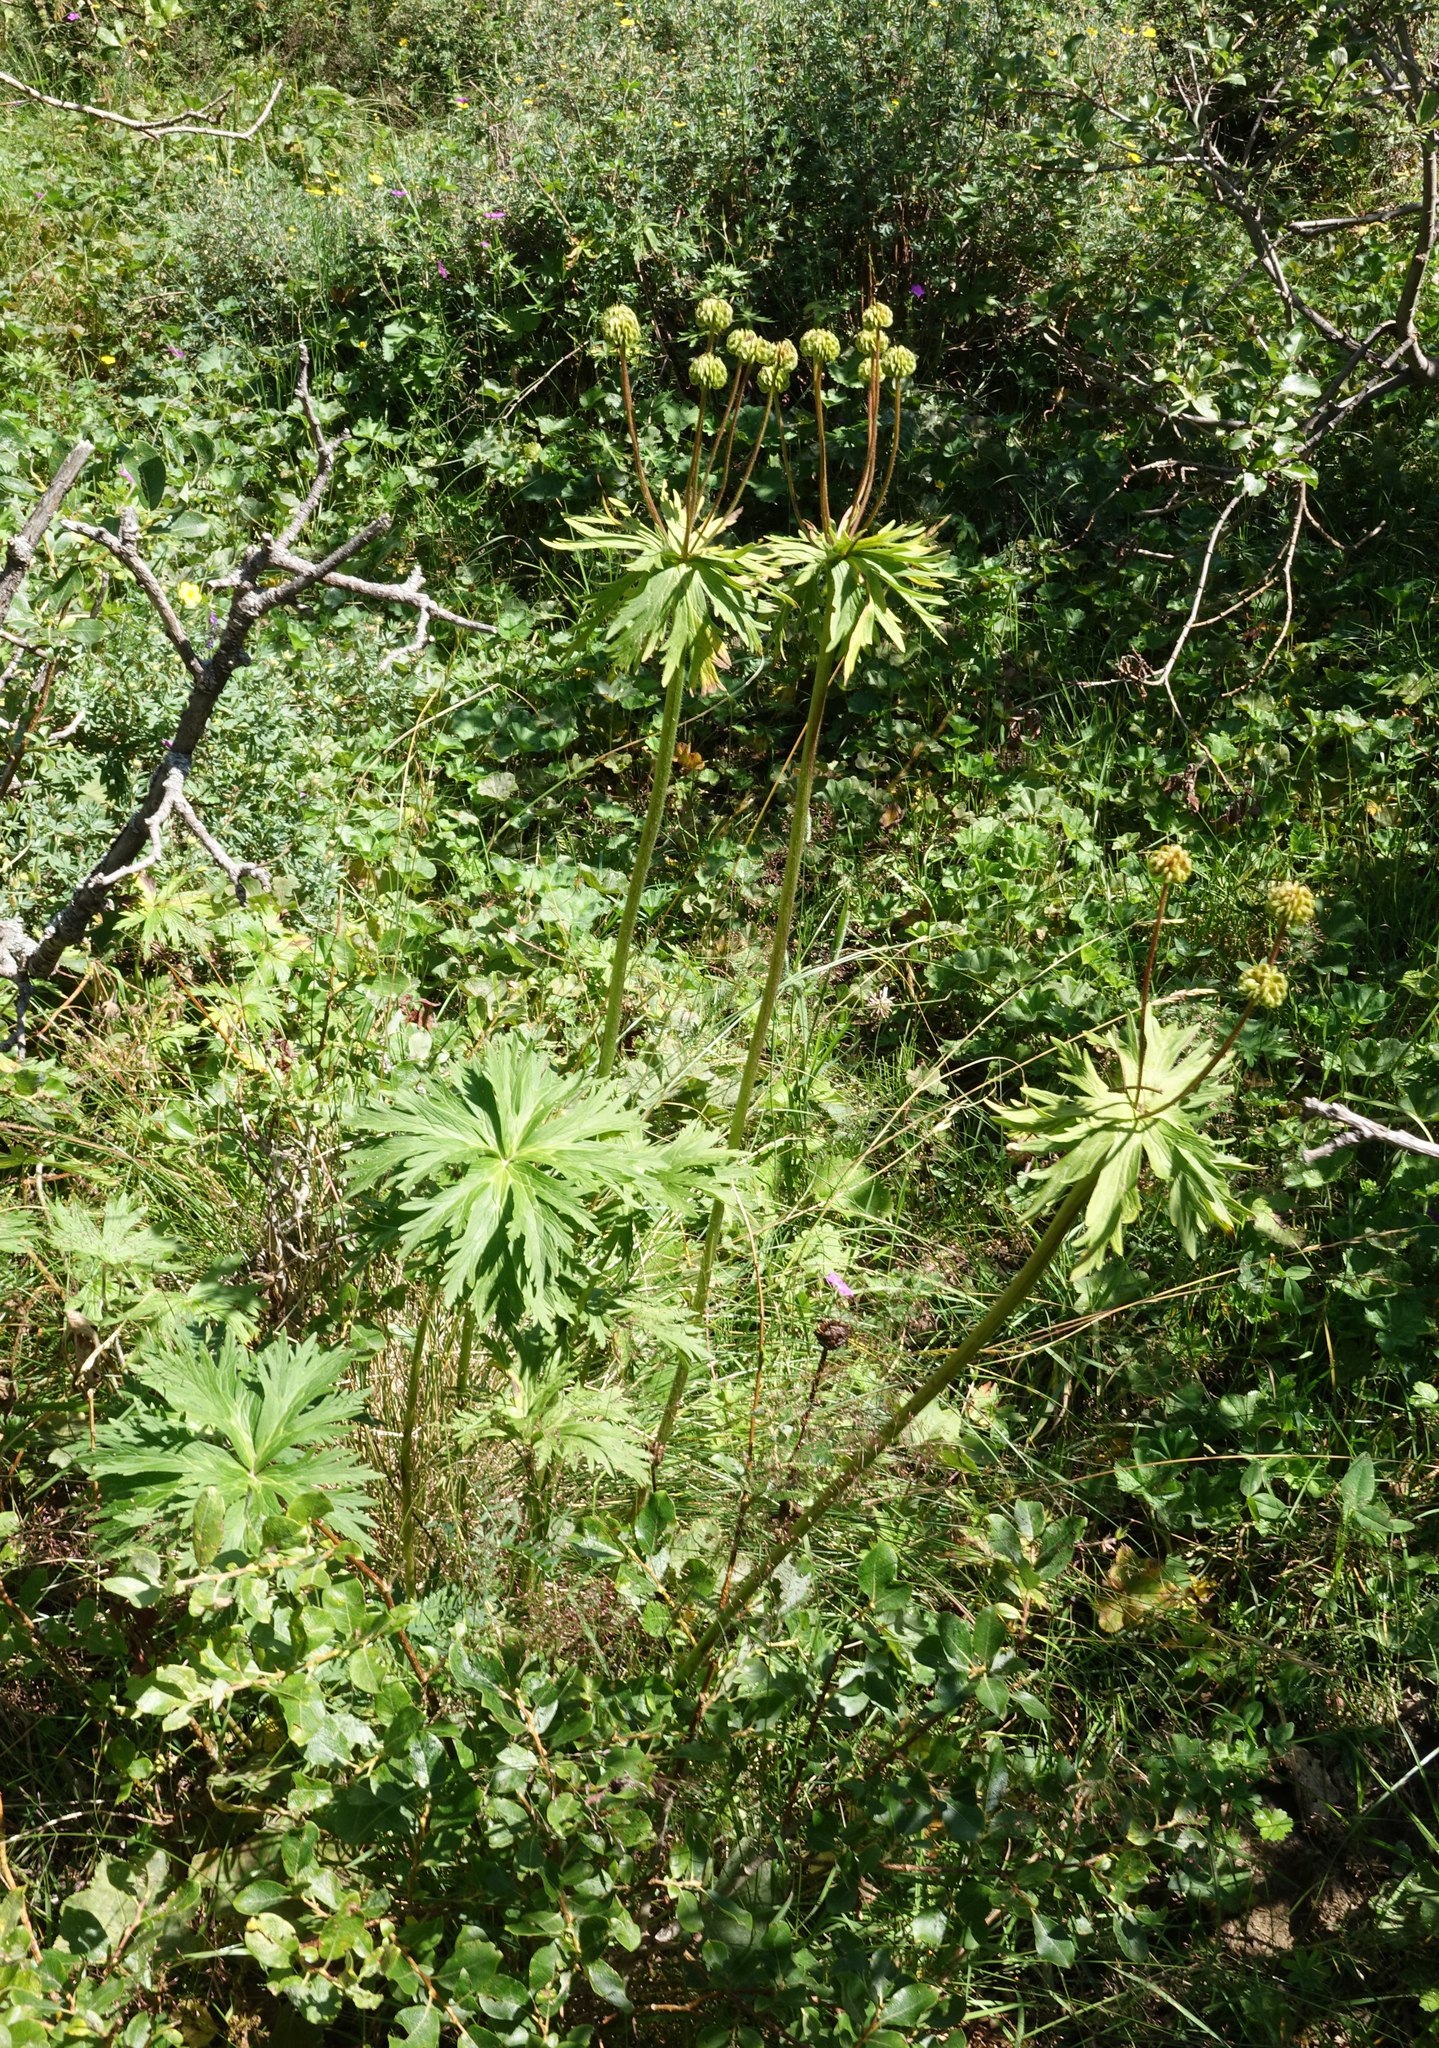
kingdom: Plantae
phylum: Tracheophyta
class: Magnoliopsida
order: Ranunculales
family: Ranunculaceae
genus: Anemonastrum
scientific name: Anemonastrum narcissiflorum
